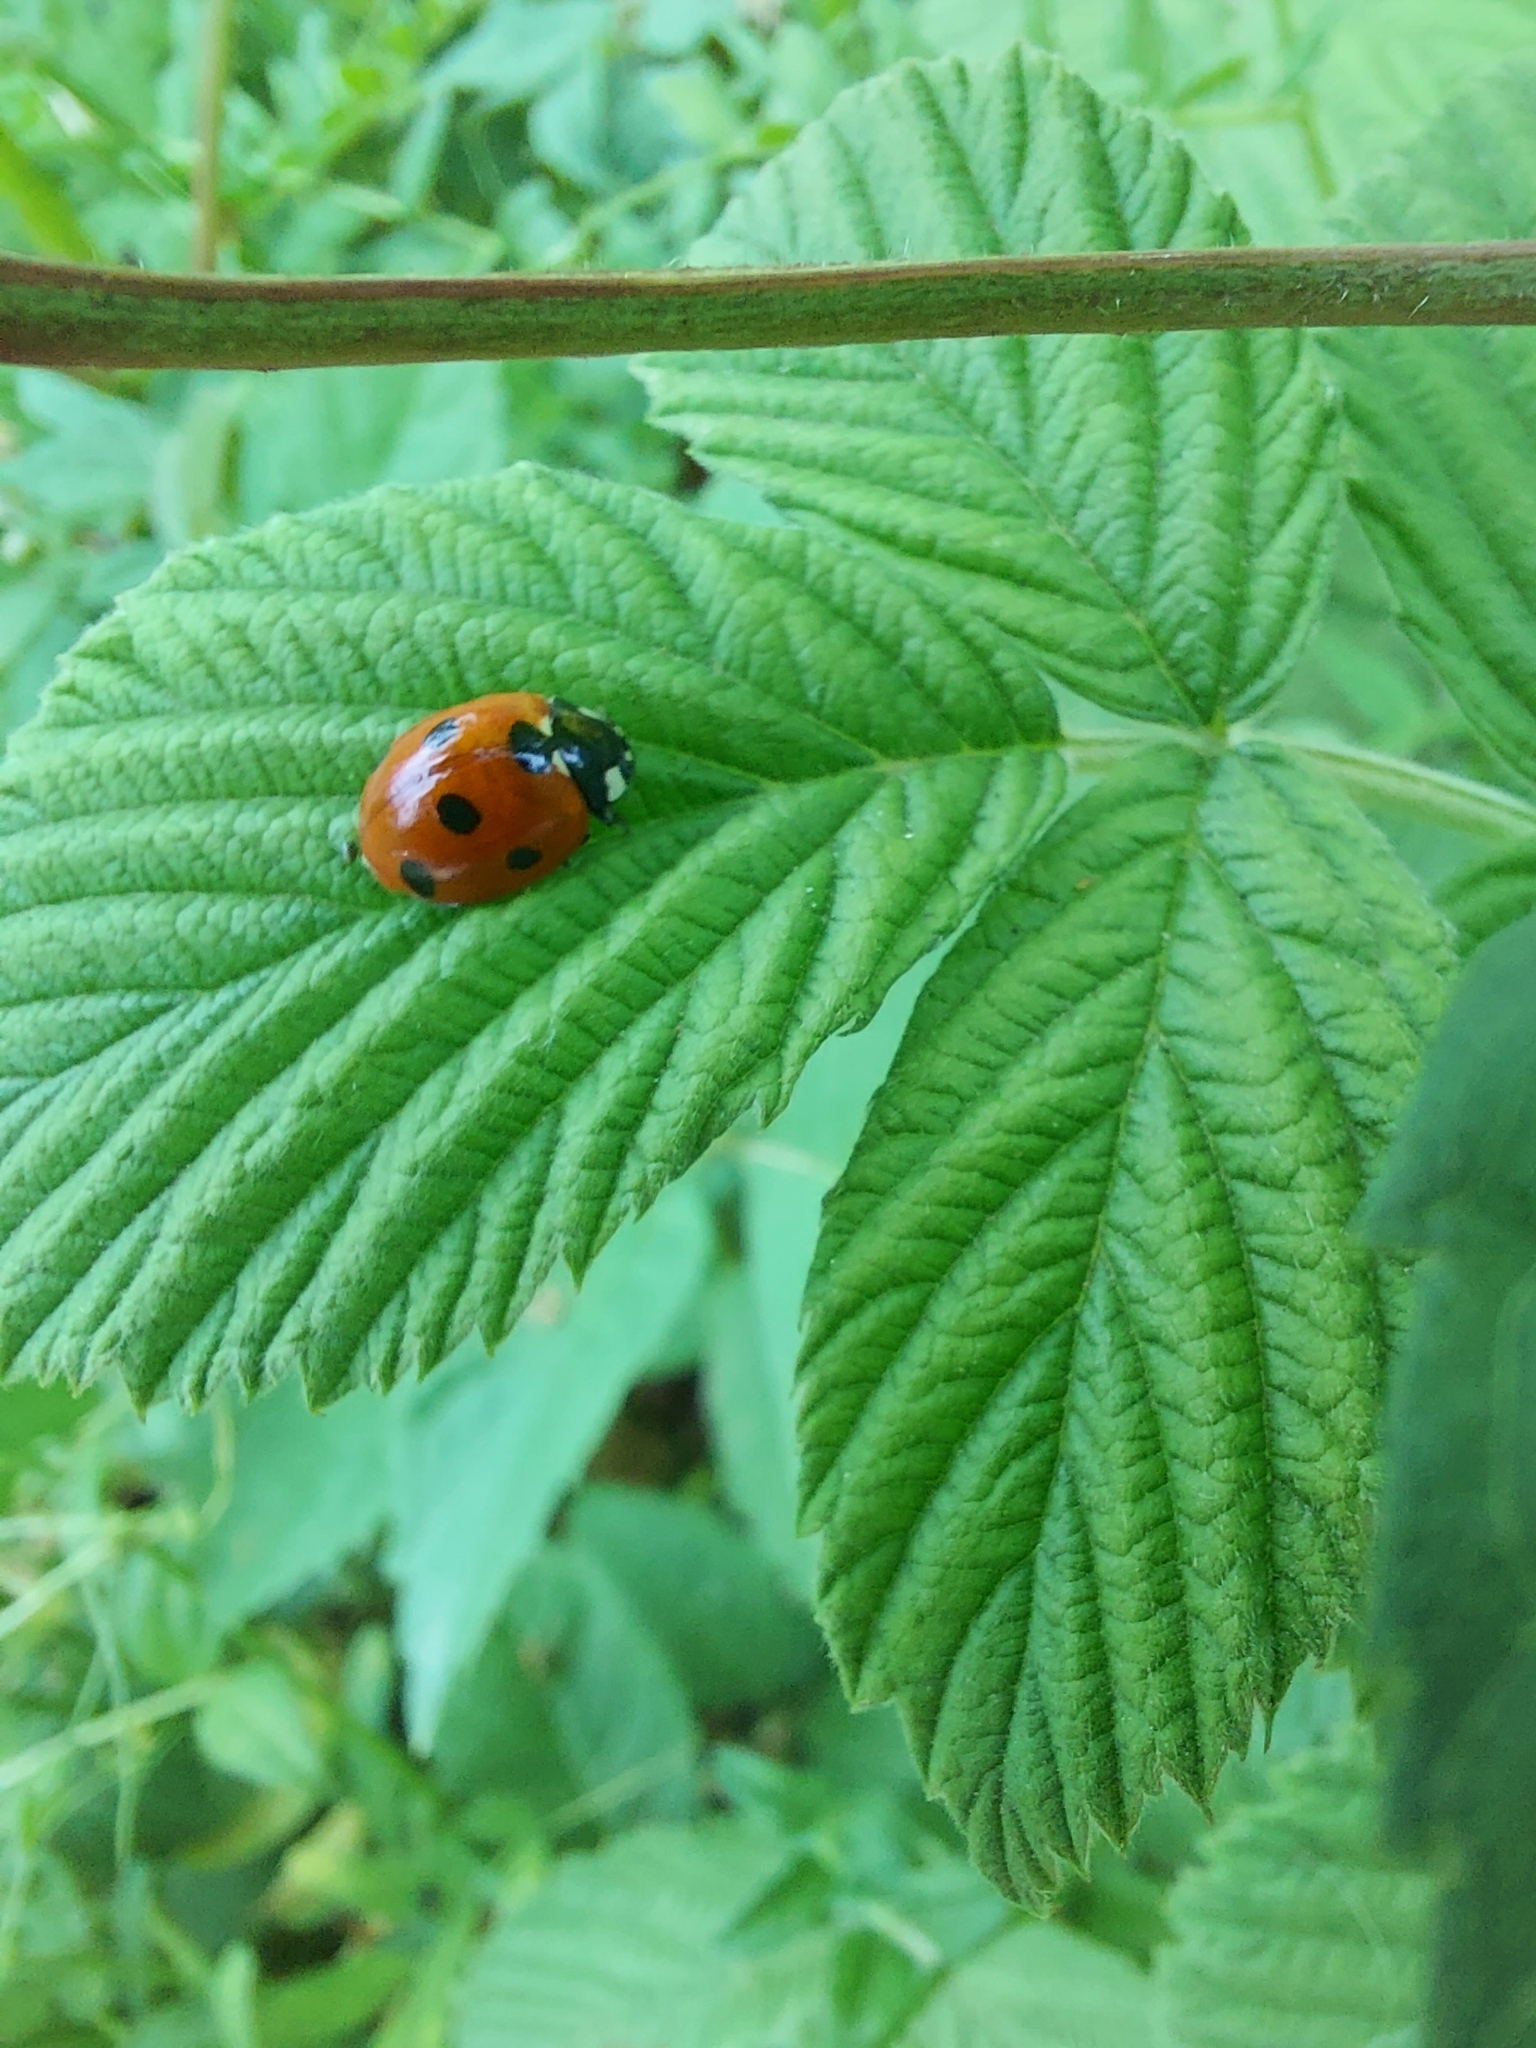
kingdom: Animalia
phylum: Arthropoda
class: Insecta
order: Coleoptera
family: Coccinellidae
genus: Coccinella
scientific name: Coccinella septempunctata
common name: Sevenspotted lady beetle
